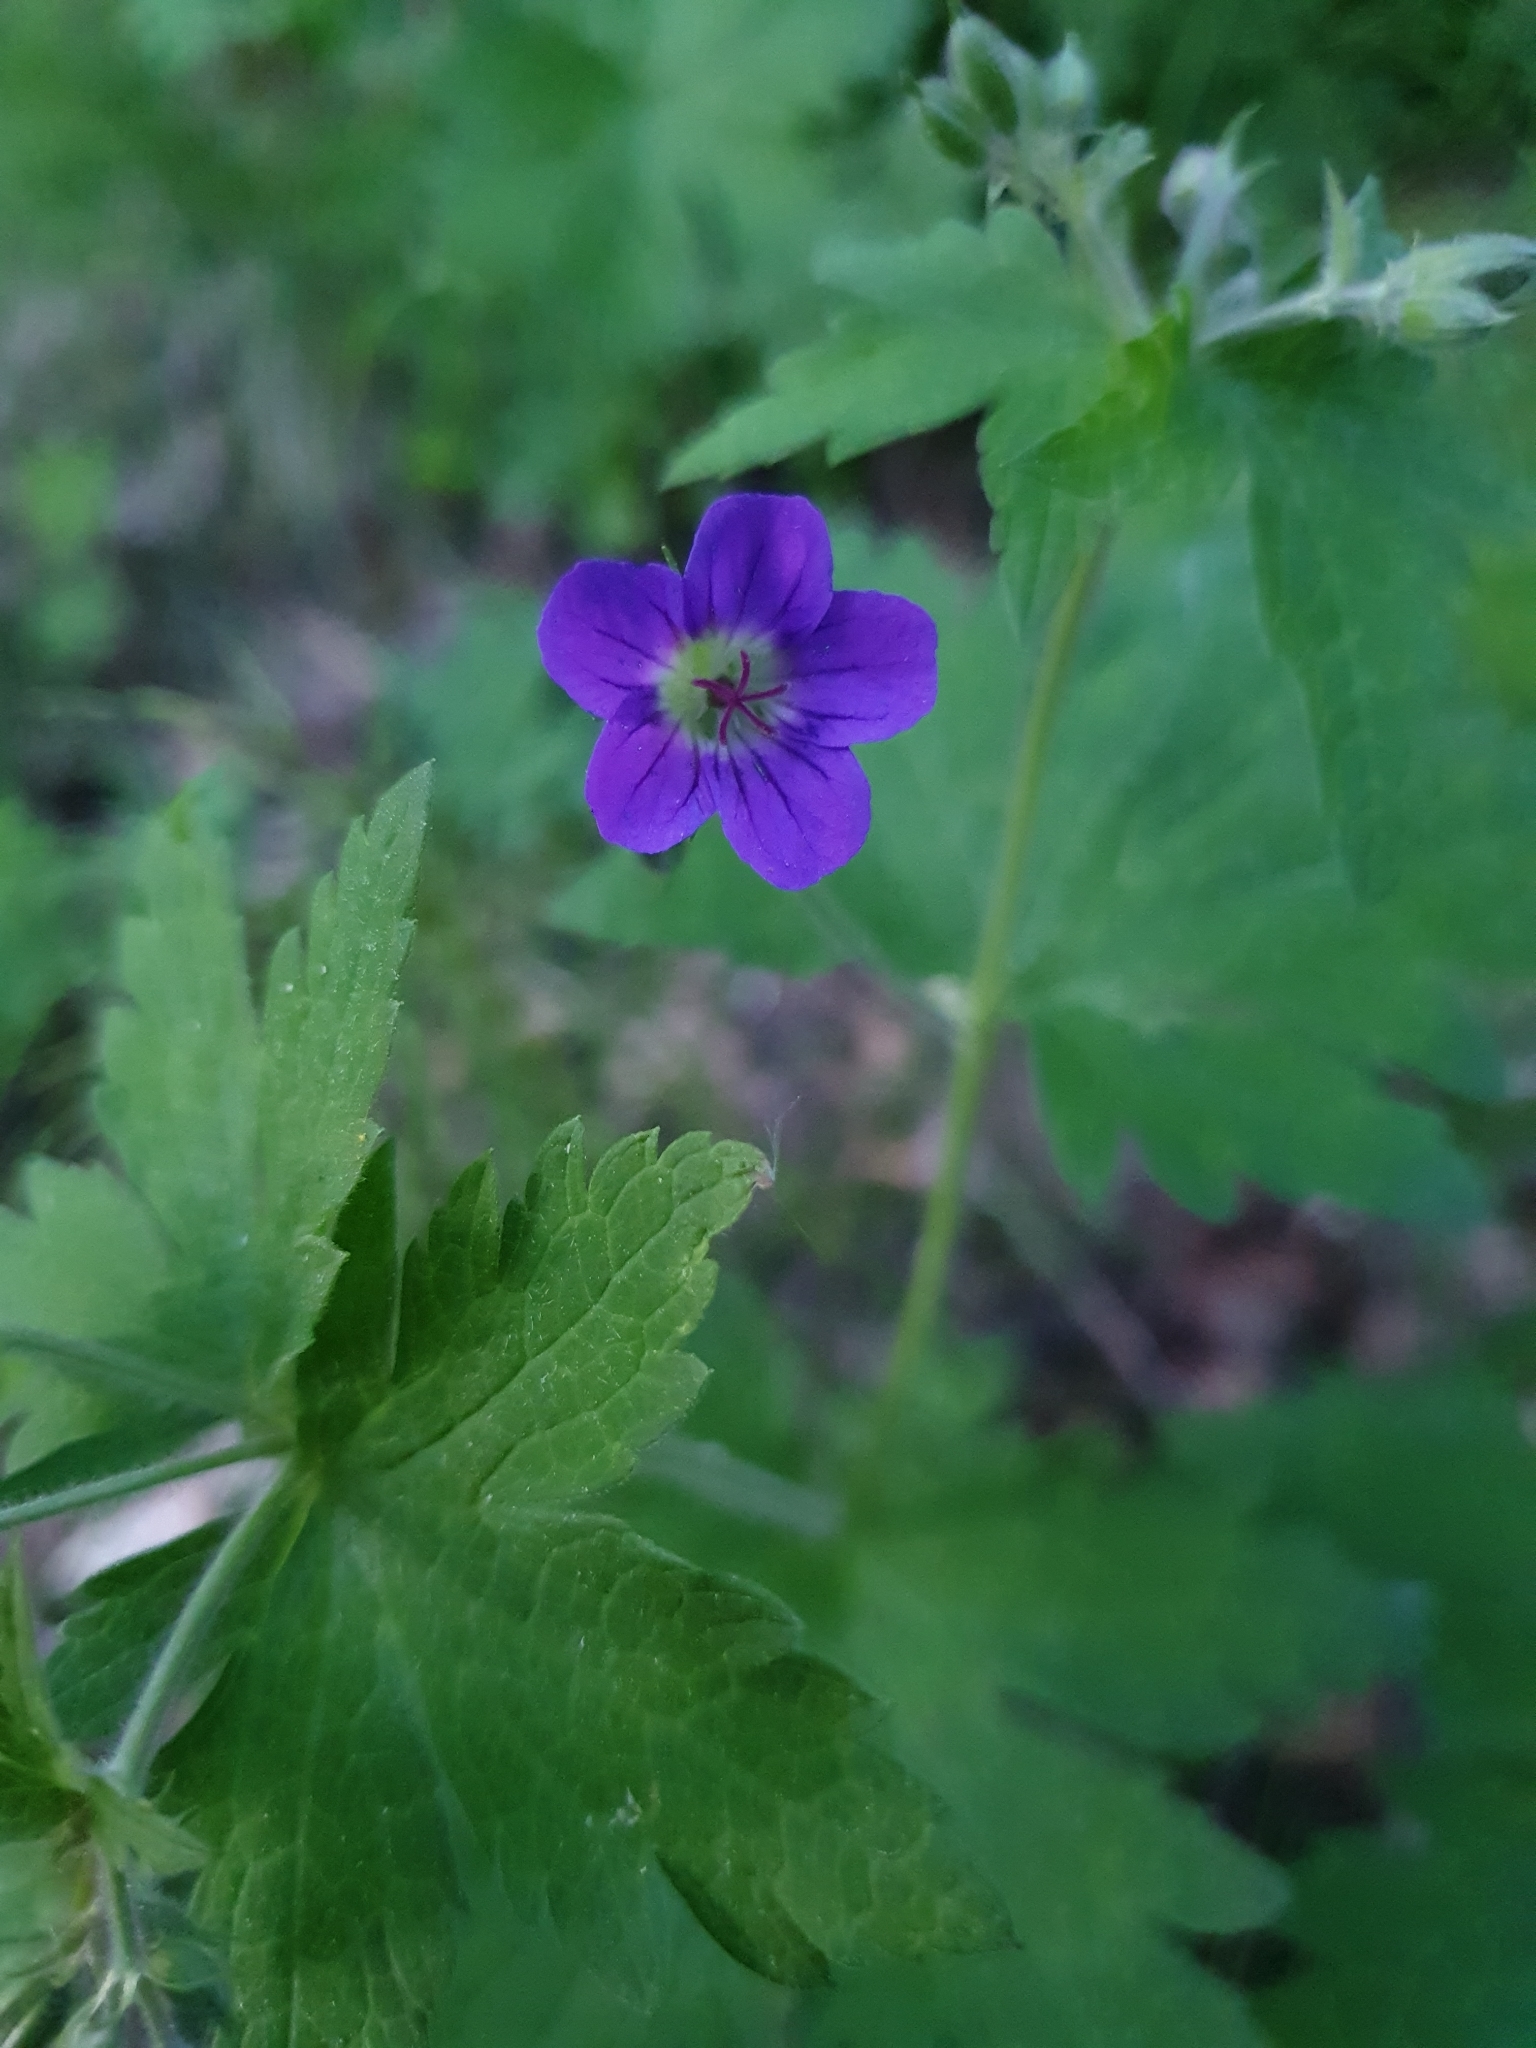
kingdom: Plantae
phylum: Tracheophyta
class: Magnoliopsida
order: Geraniales
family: Geraniaceae
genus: Geranium
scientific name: Geranium sylvaticum
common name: Wood crane's-bill
